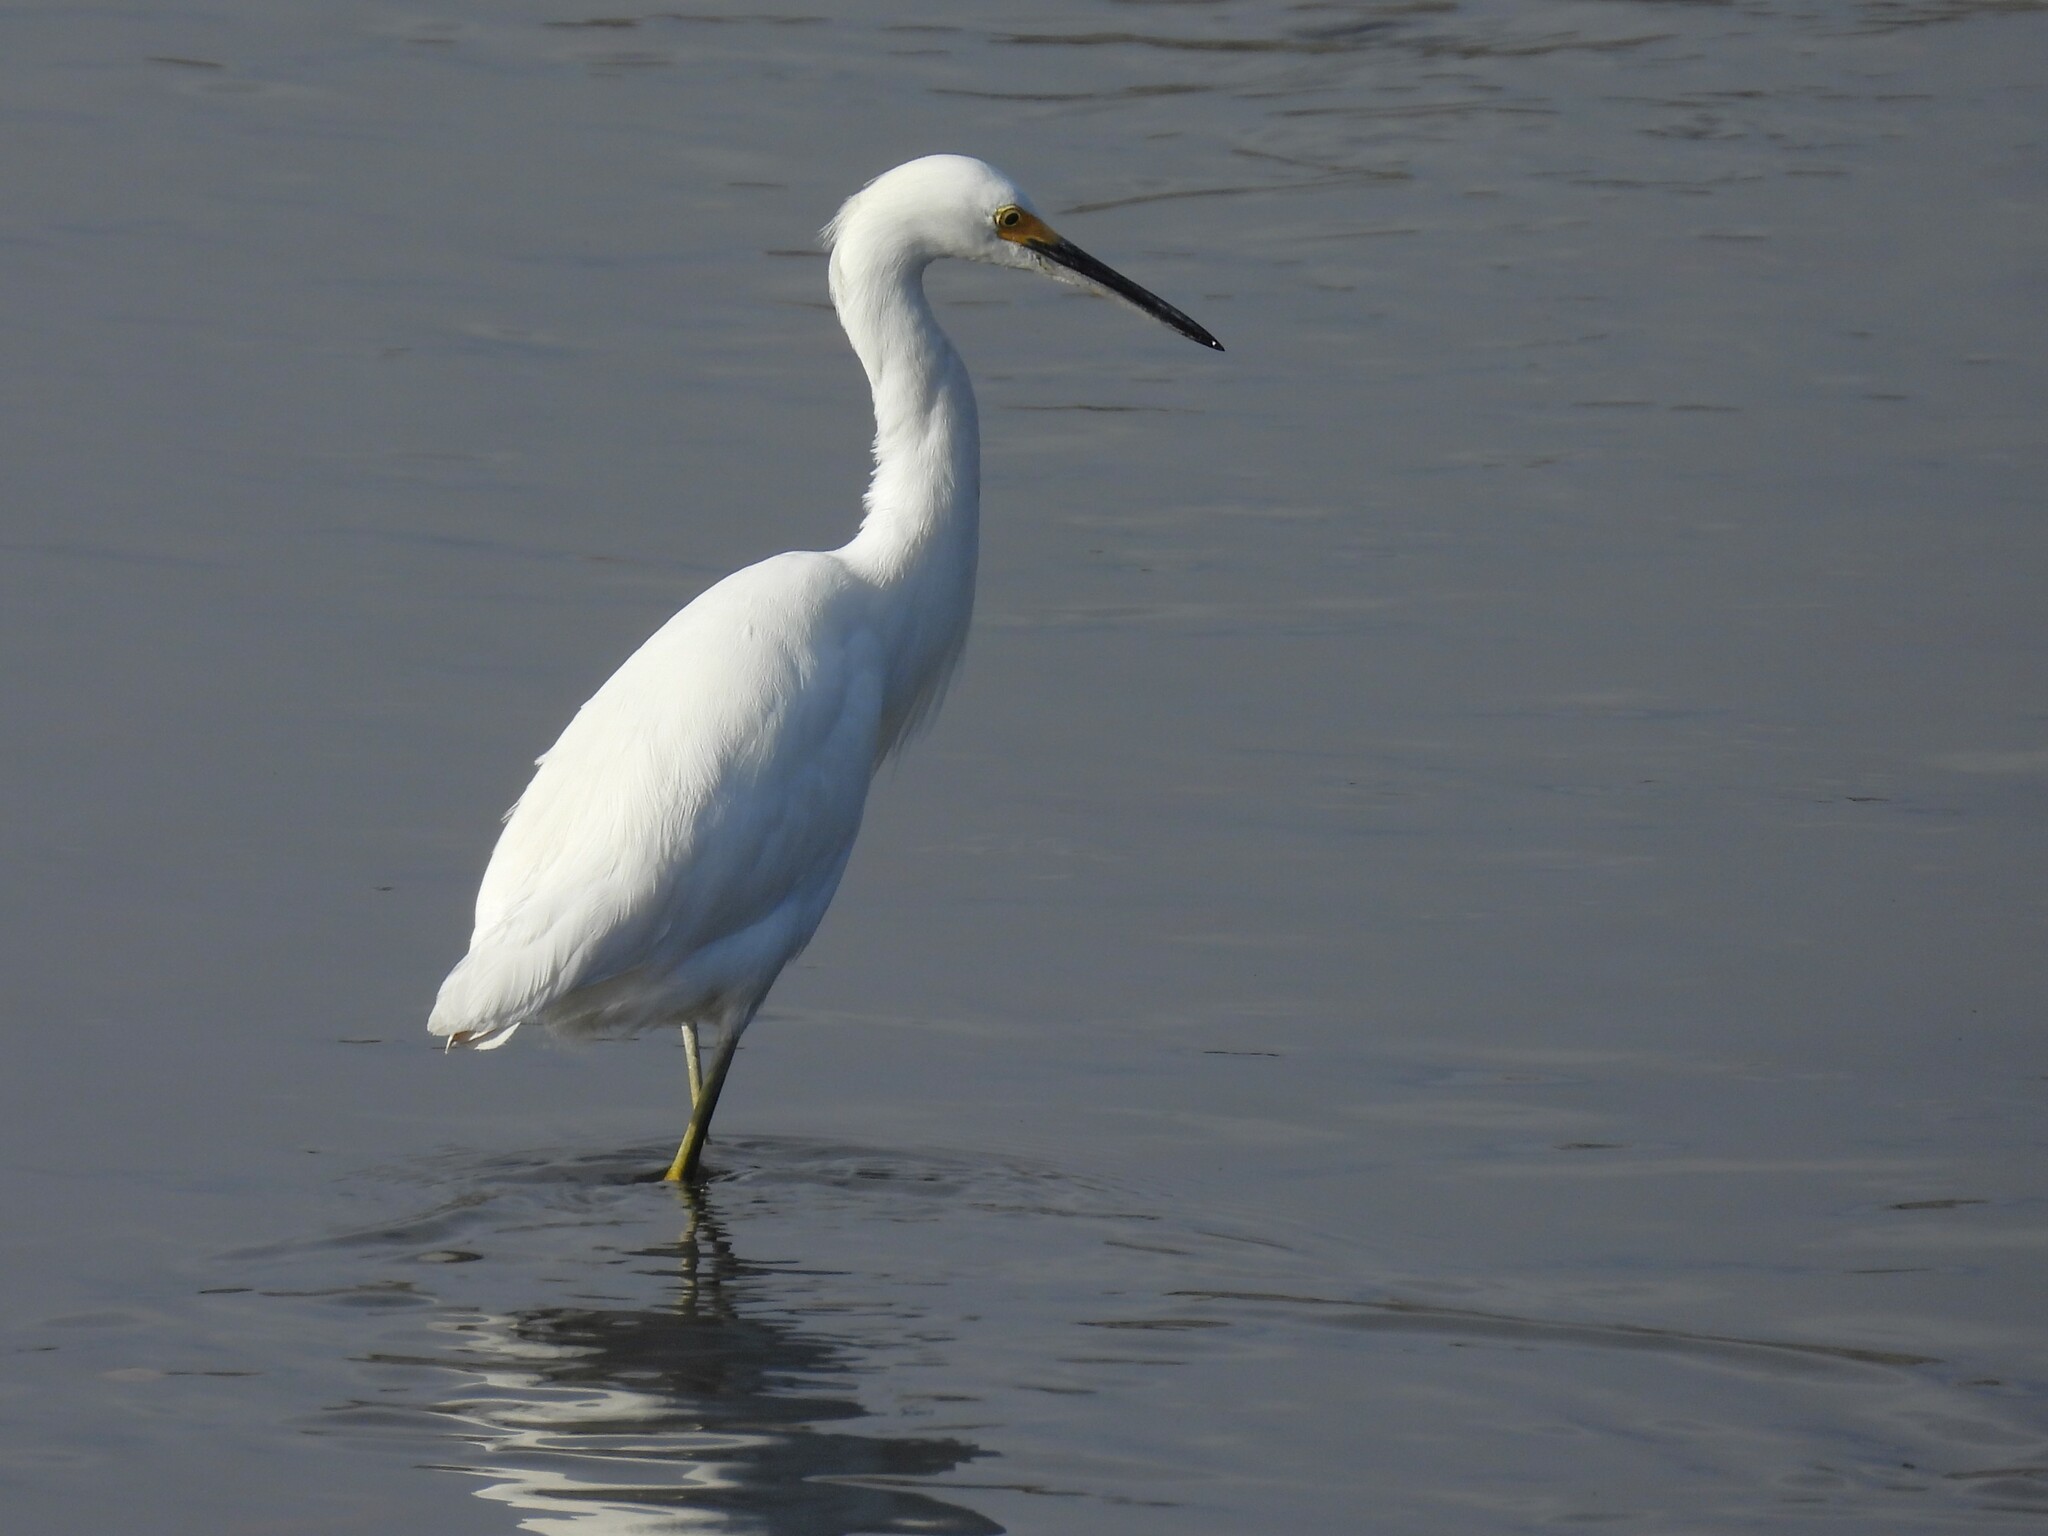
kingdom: Animalia
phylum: Chordata
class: Aves
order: Pelecaniformes
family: Ardeidae
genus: Egretta
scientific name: Egretta thula
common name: Snowy egret
